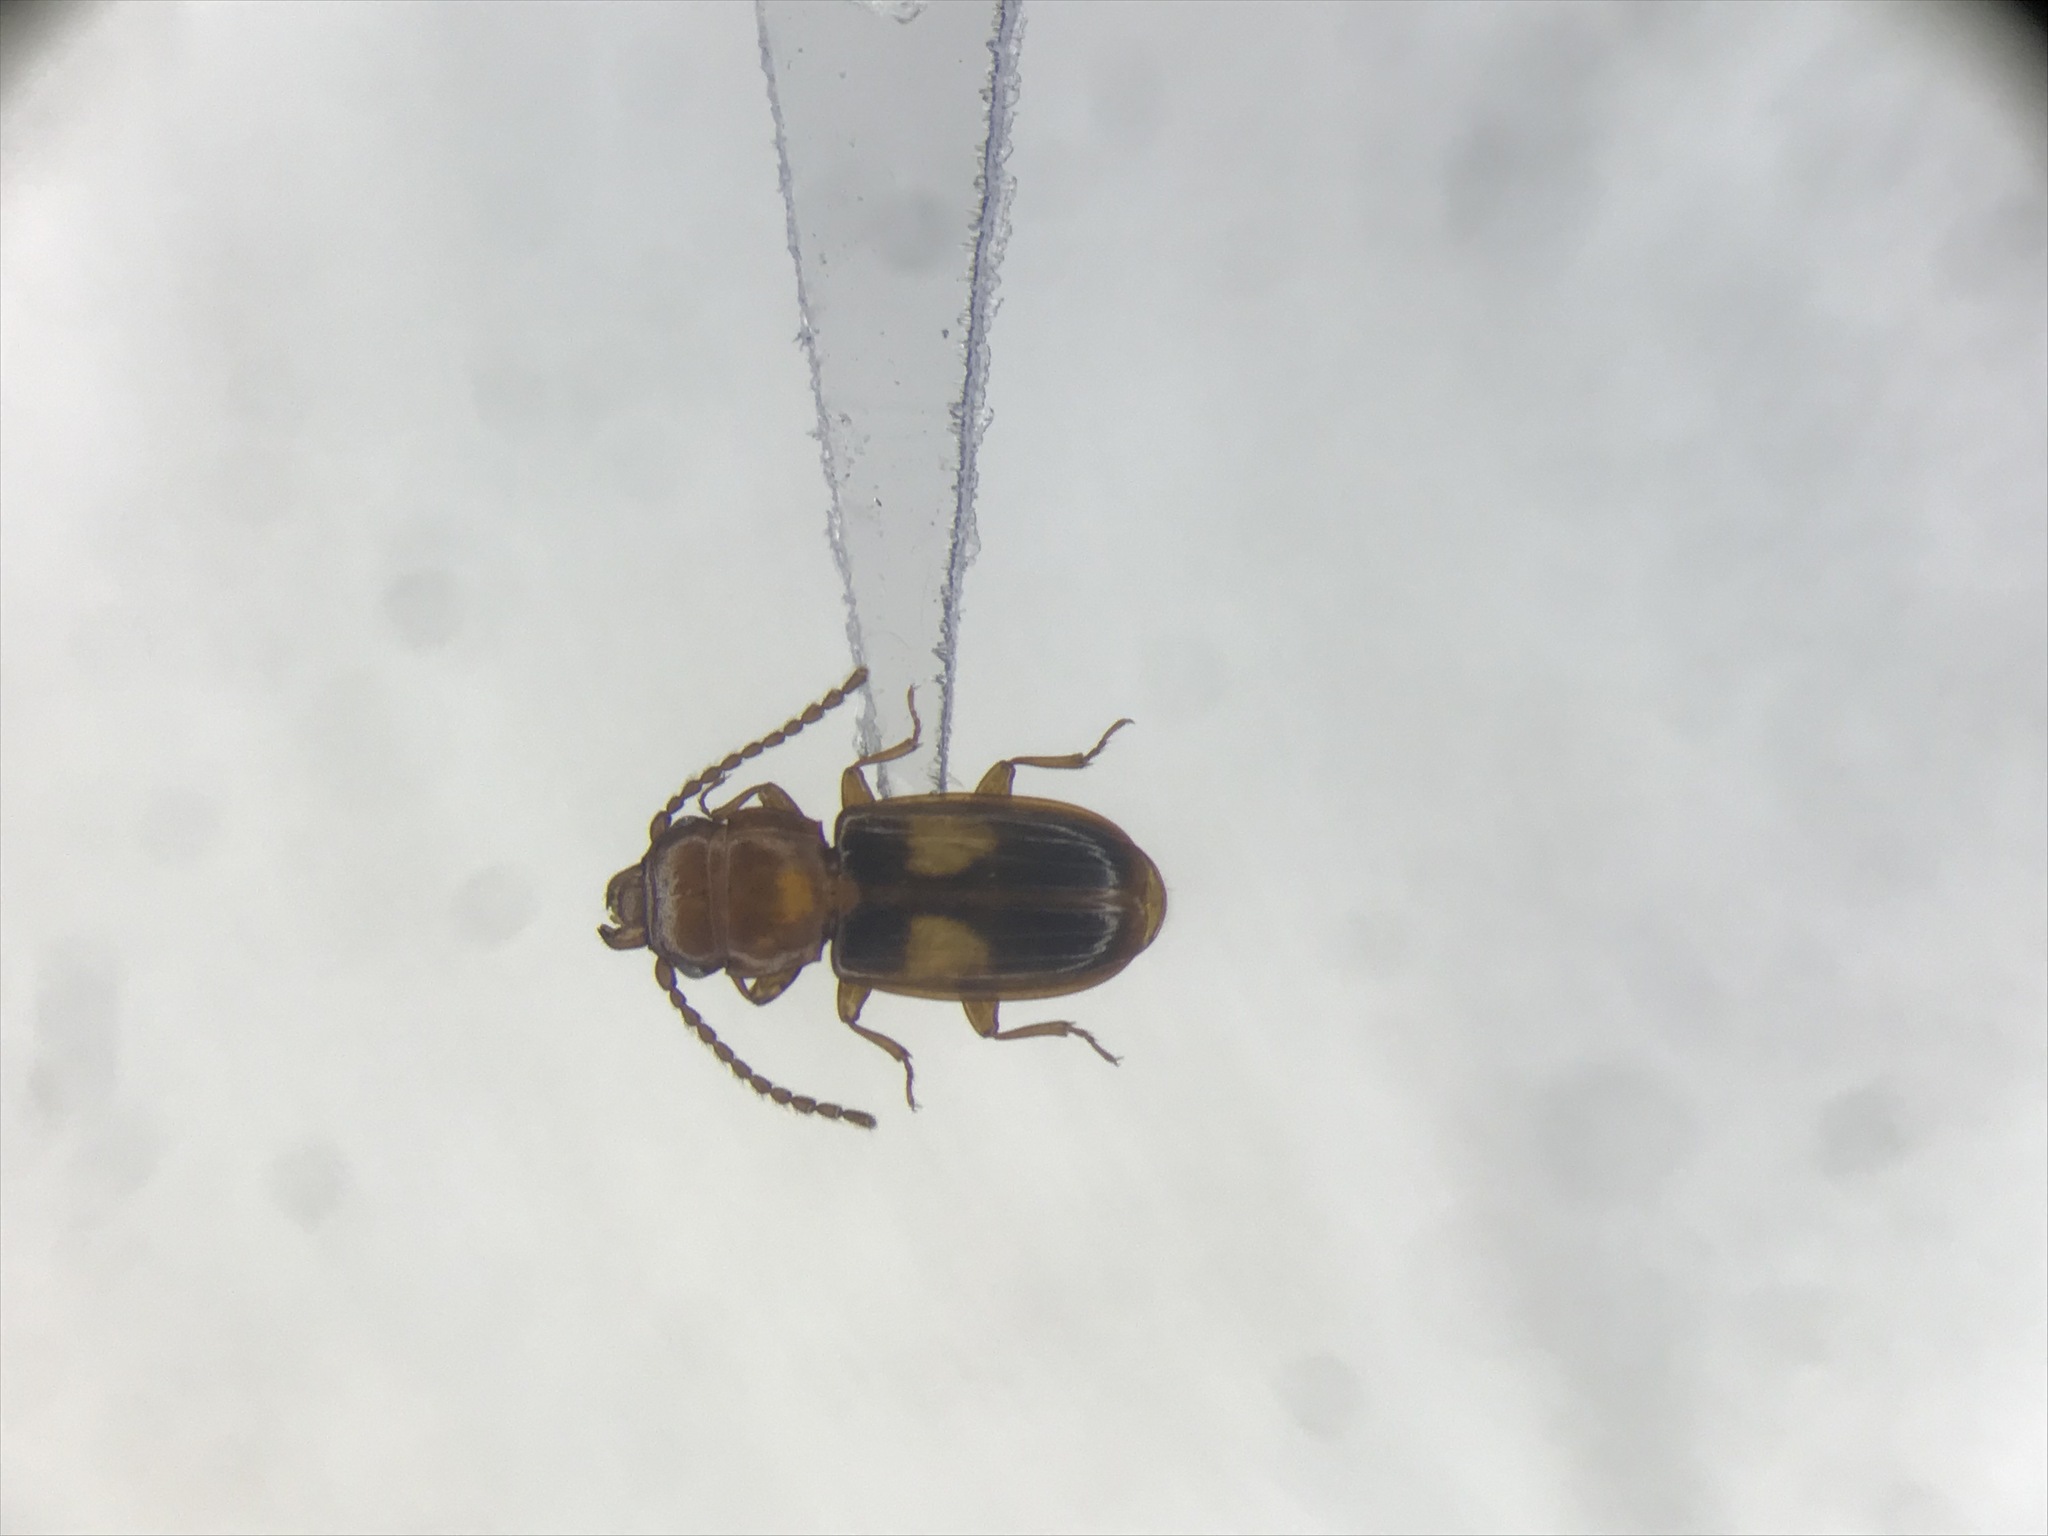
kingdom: Animalia
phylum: Arthropoda
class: Insecta
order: Coleoptera
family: Laemophloeidae
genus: Laemophloeus
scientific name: Laemophloeus fasciatus
